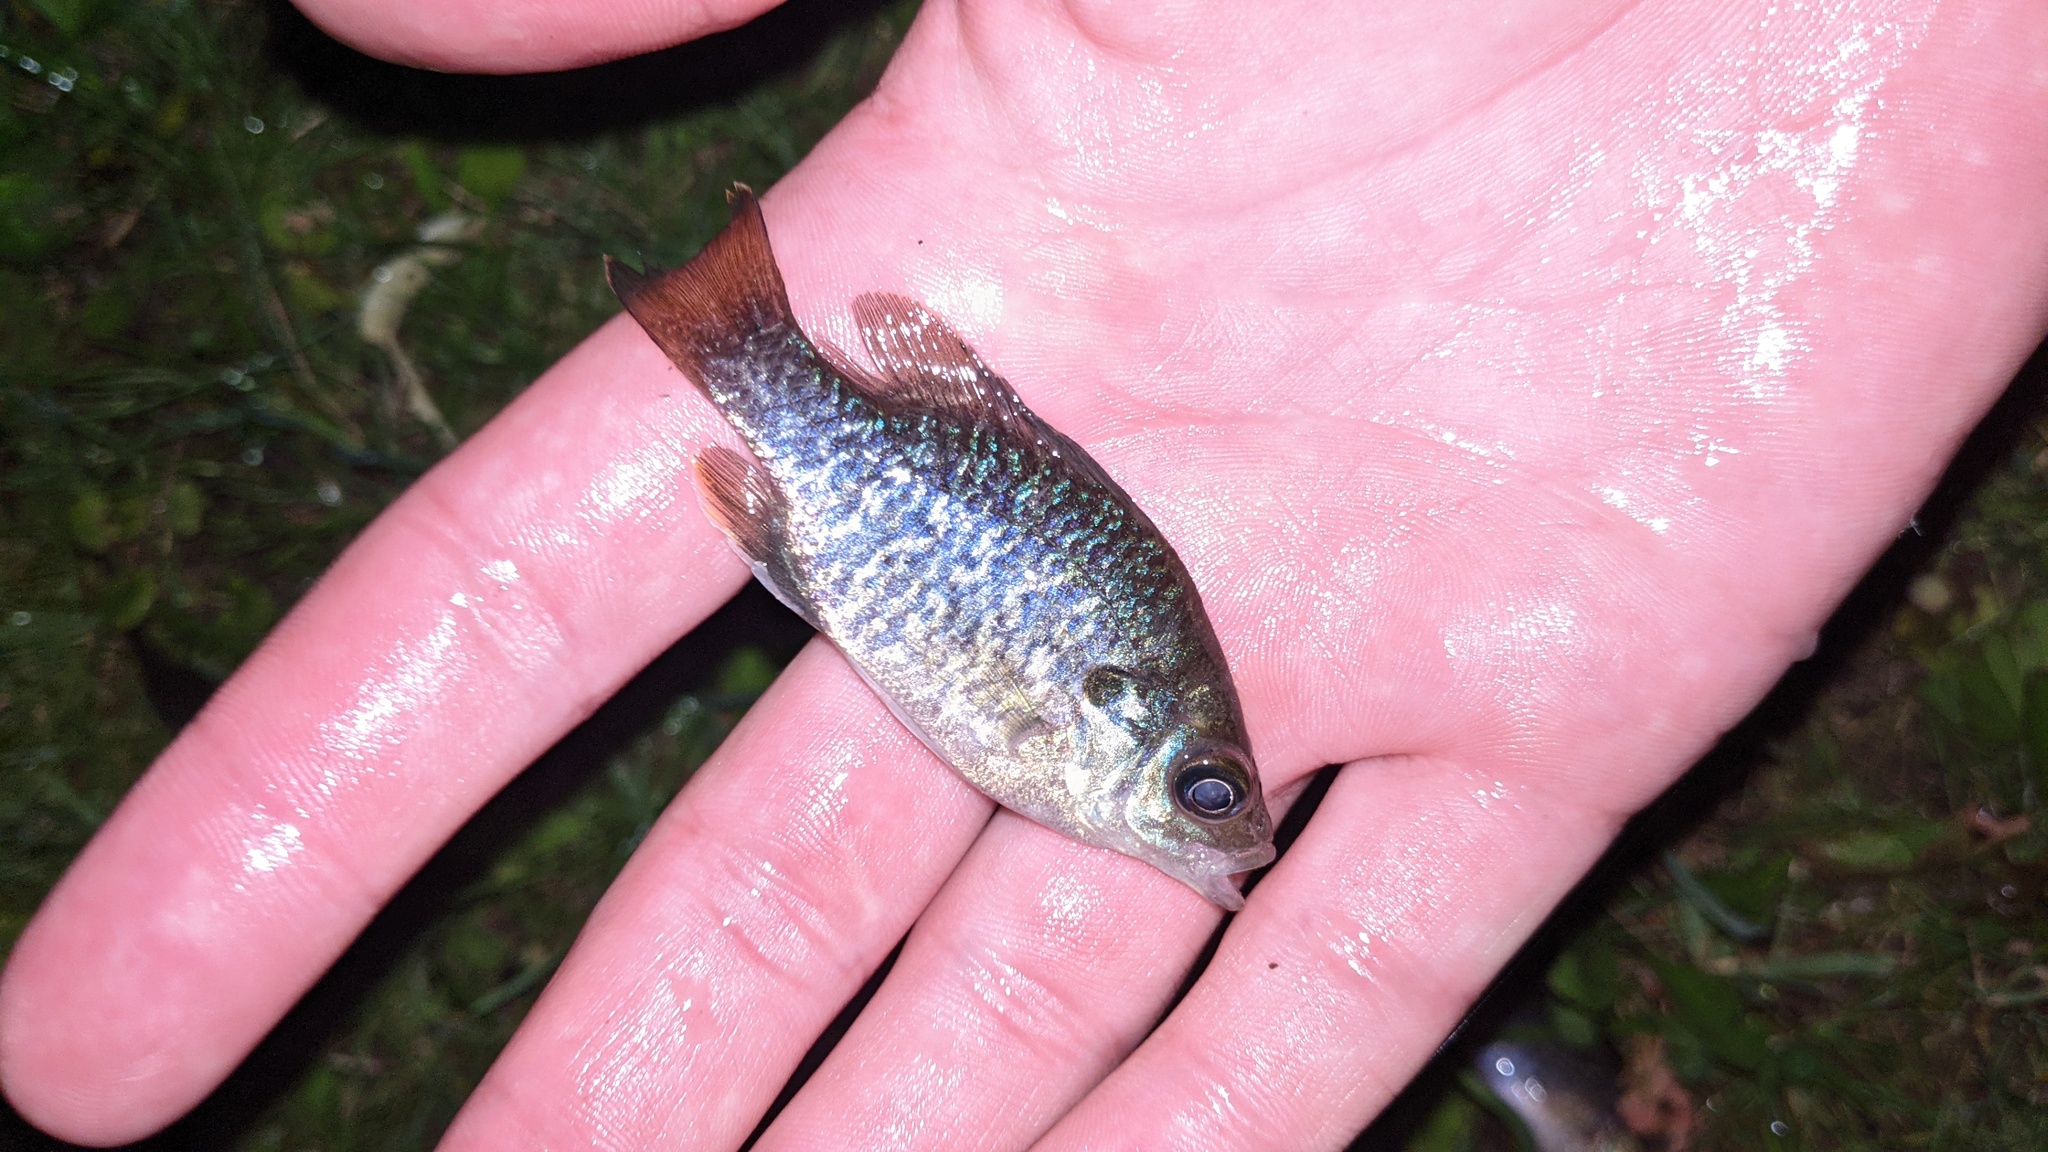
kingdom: Animalia
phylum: Chordata
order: Perciformes
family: Centrarchidae
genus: Lepomis
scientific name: Lepomis
